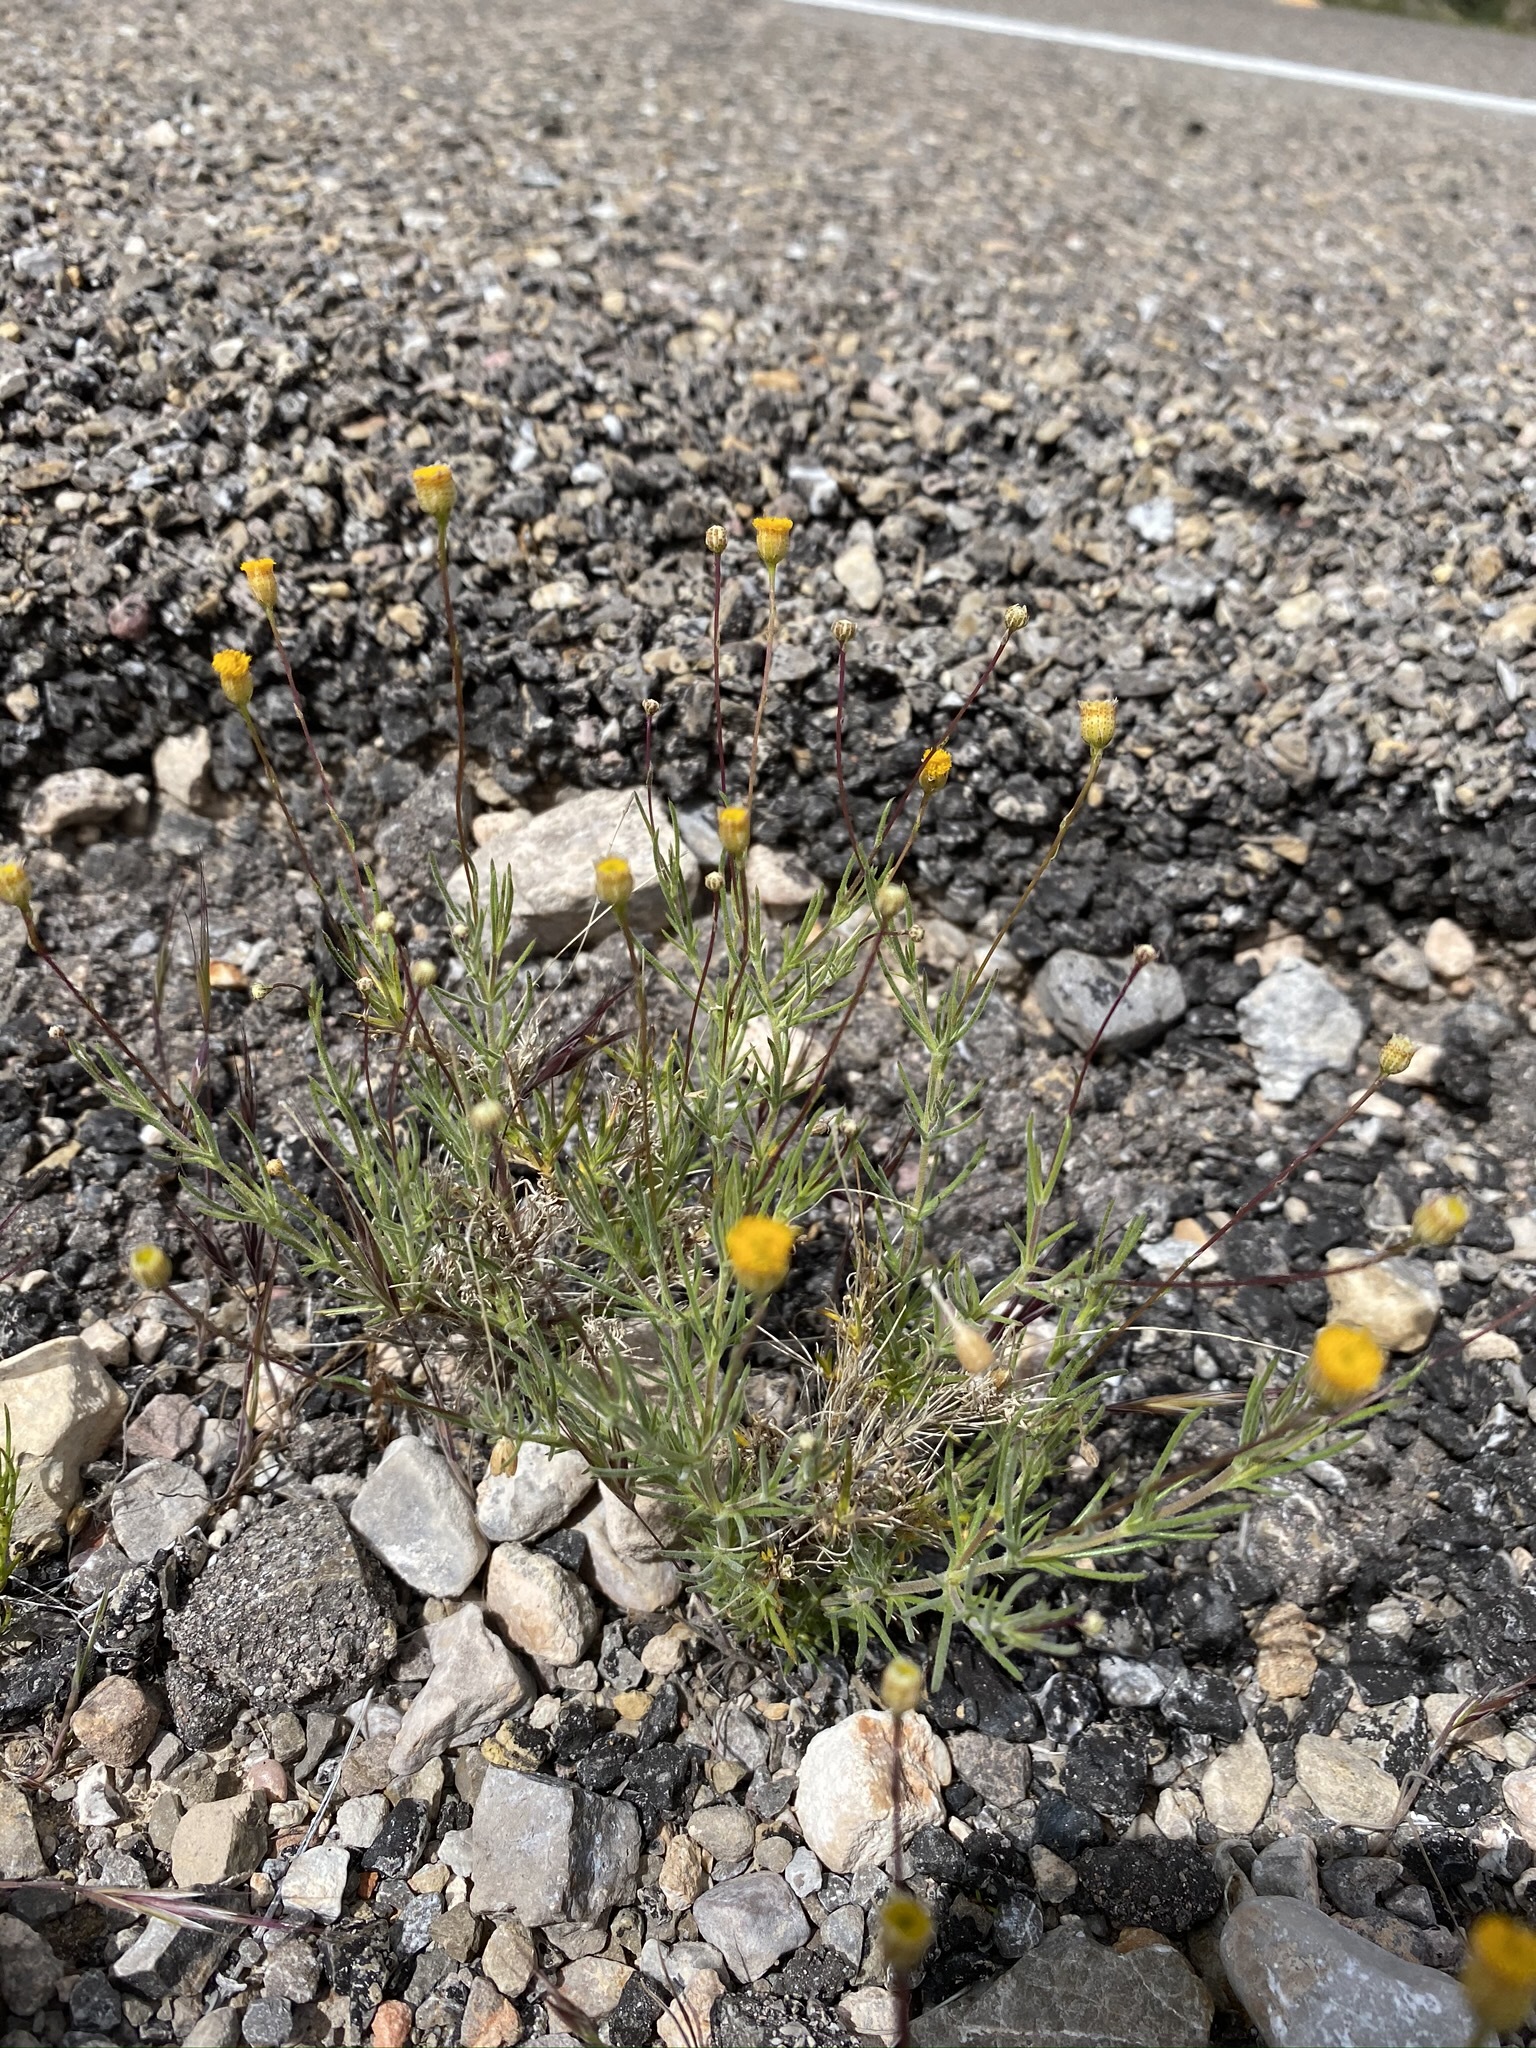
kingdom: Plantae
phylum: Tracheophyta
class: Magnoliopsida
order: Asterales
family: Asteraceae
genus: Thymophylla
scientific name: Thymophylla pentachaeta
